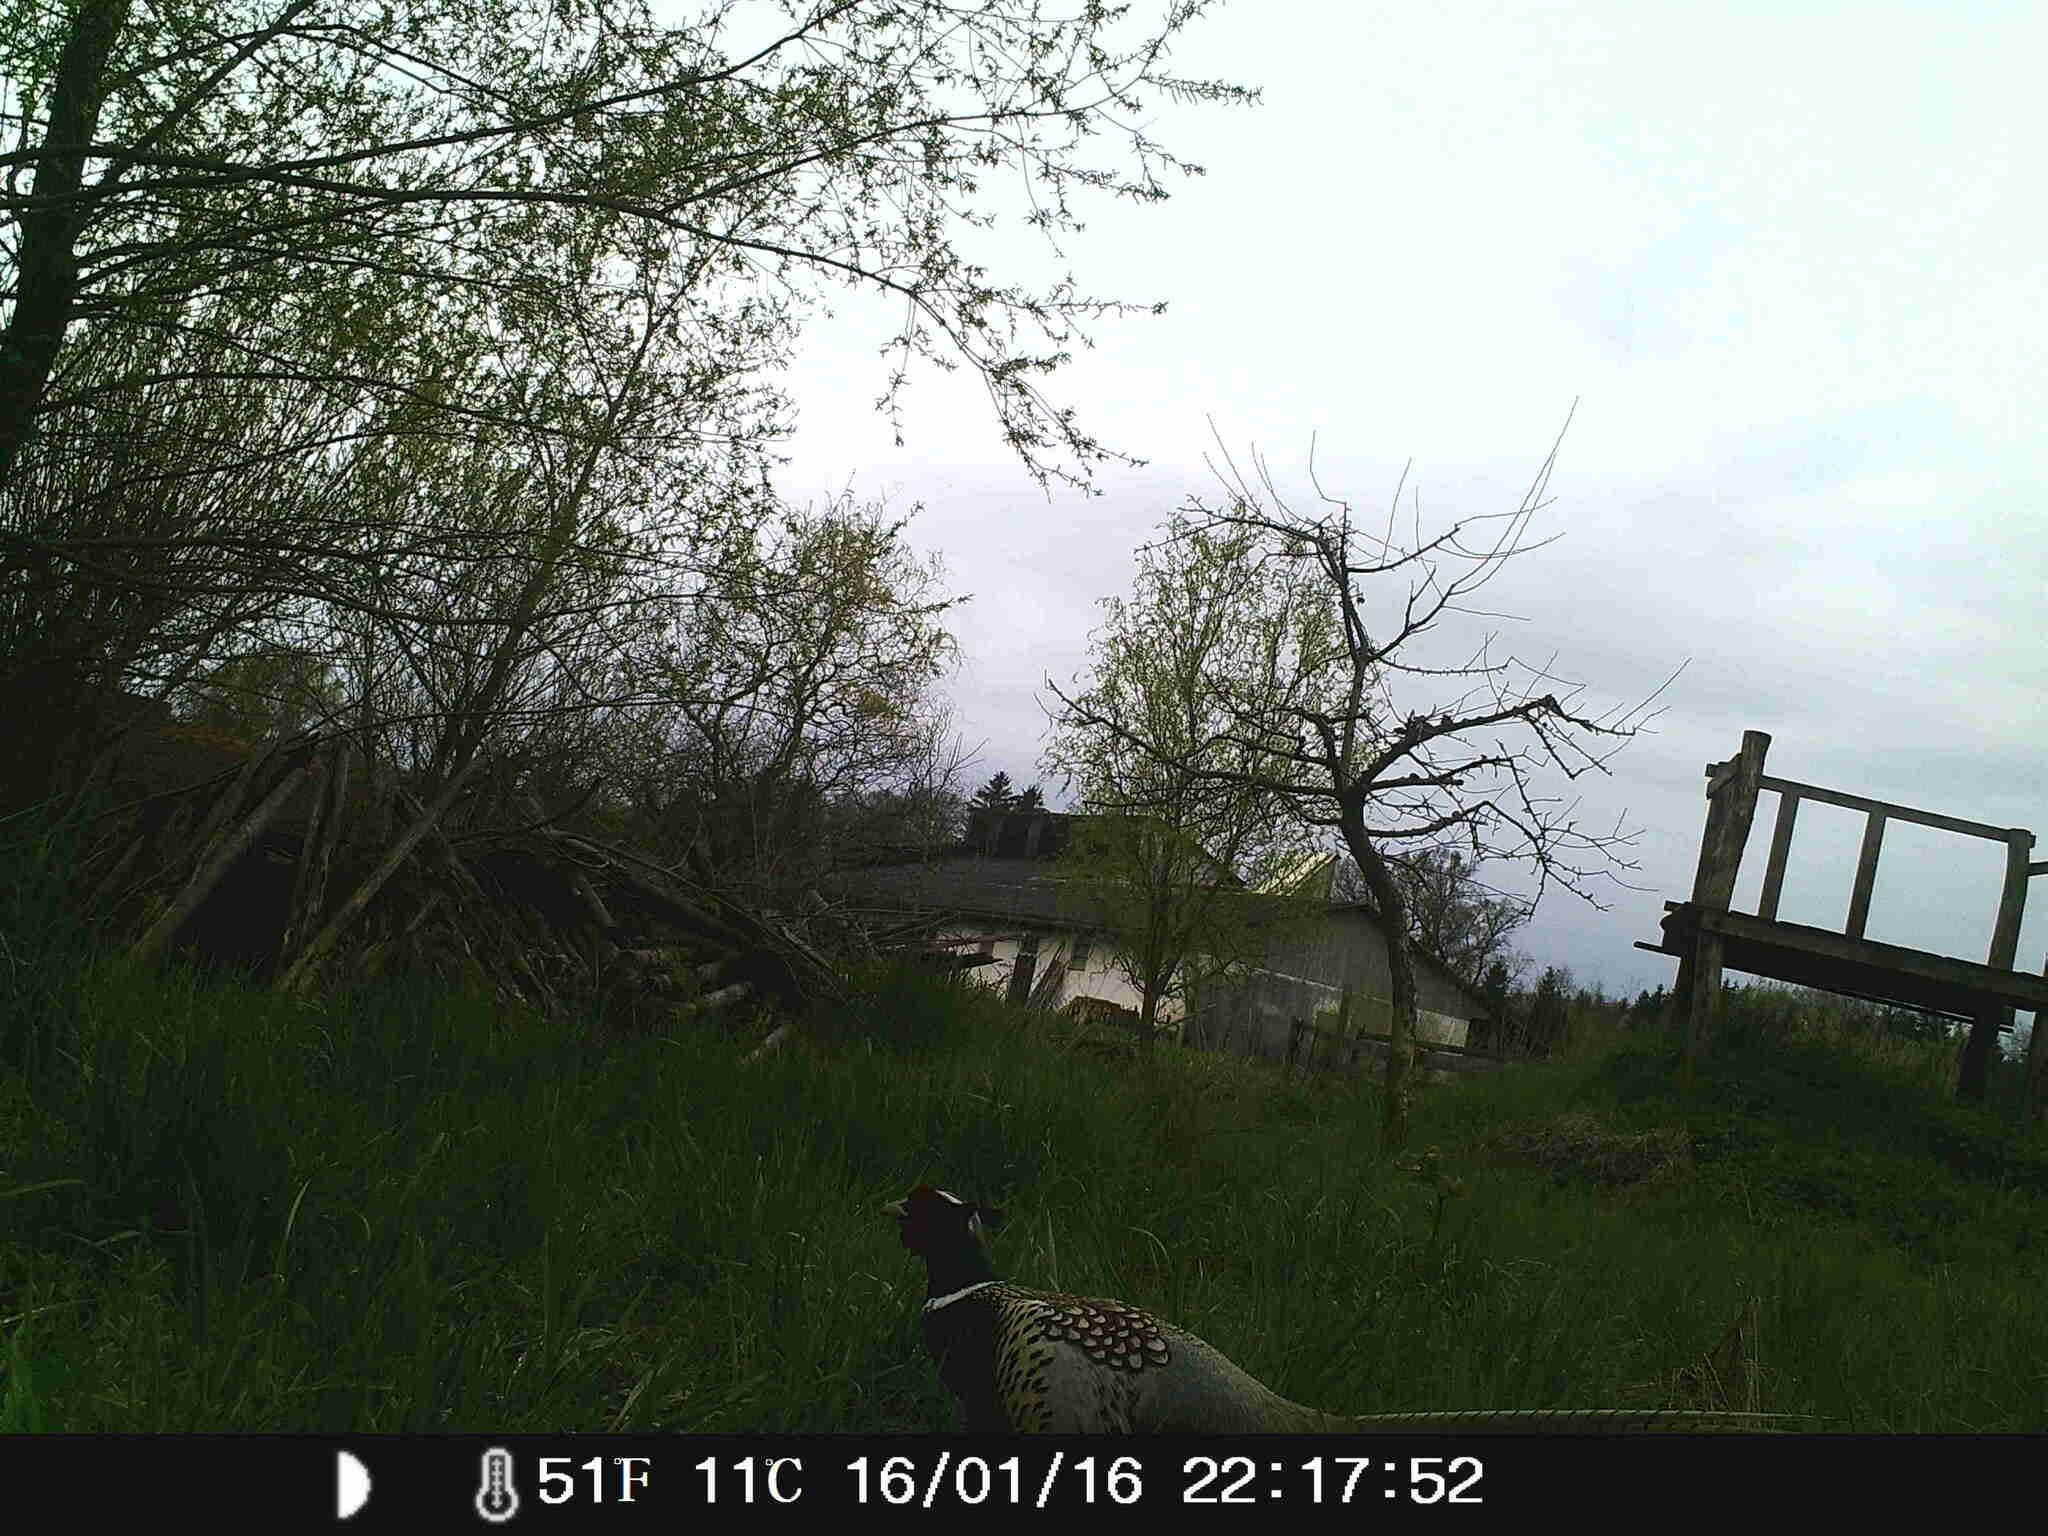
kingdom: Animalia
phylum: Chordata
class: Aves
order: Galliformes
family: Phasianidae
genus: Phasianus
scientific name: Phasianus colchicus
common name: Common pheasant
